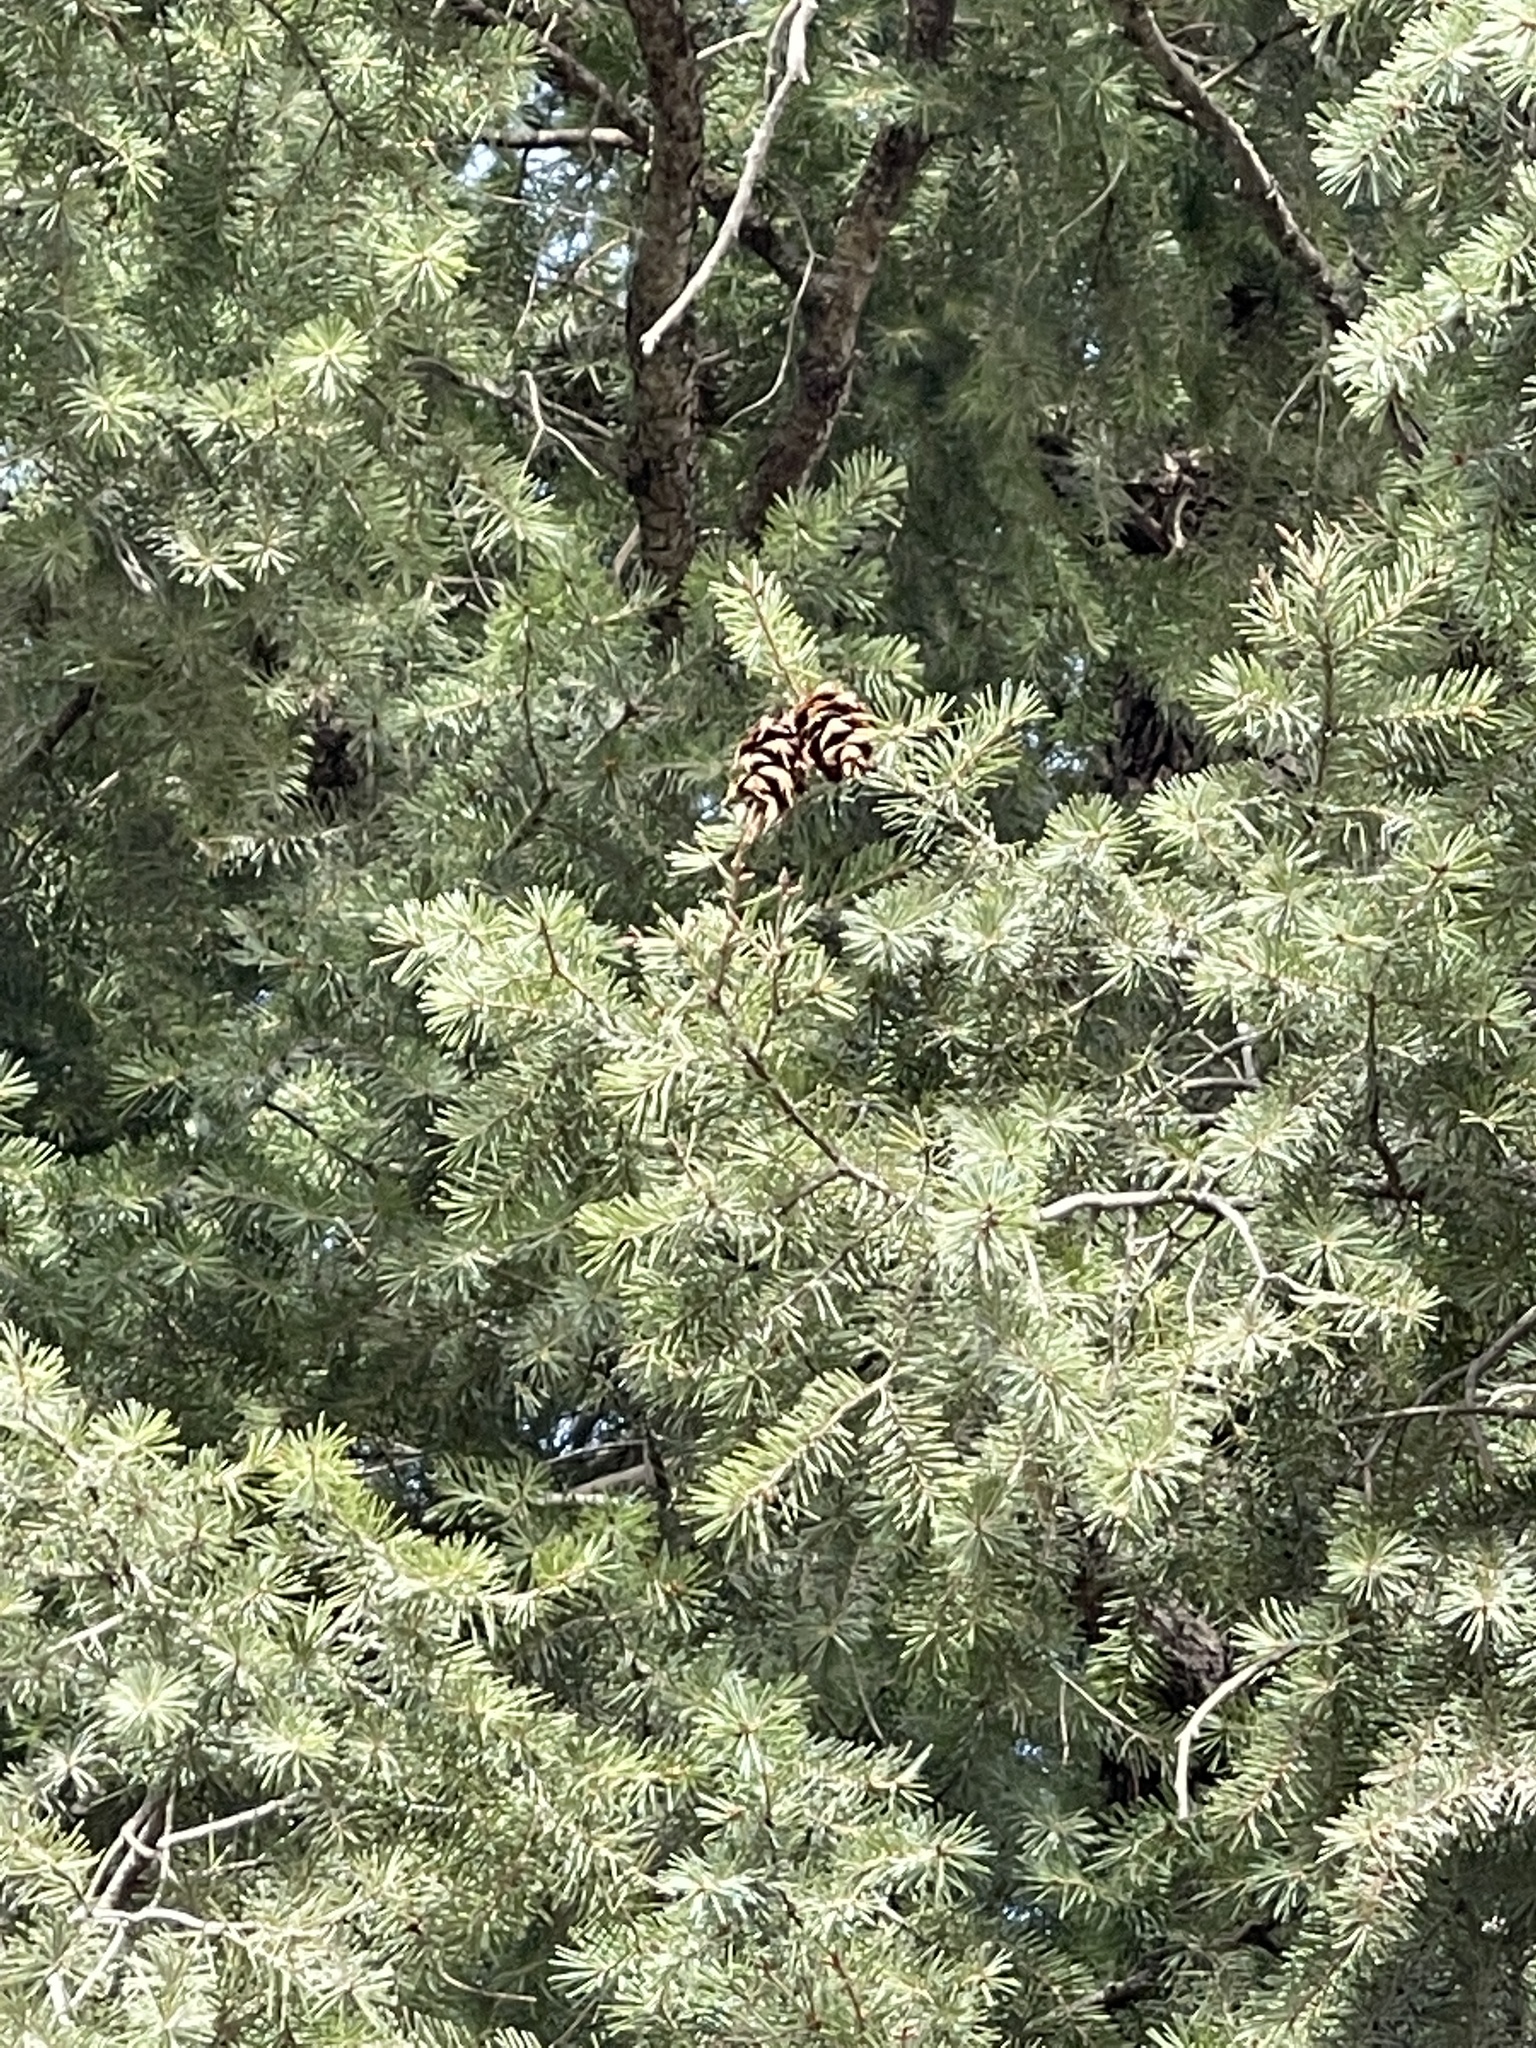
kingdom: Plantae
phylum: Tracheophyta
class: Pinopsida
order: Pinales
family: Pinaceae
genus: Pseudotsuga
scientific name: Pseudotsuga menziesii
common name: Douglas fir
